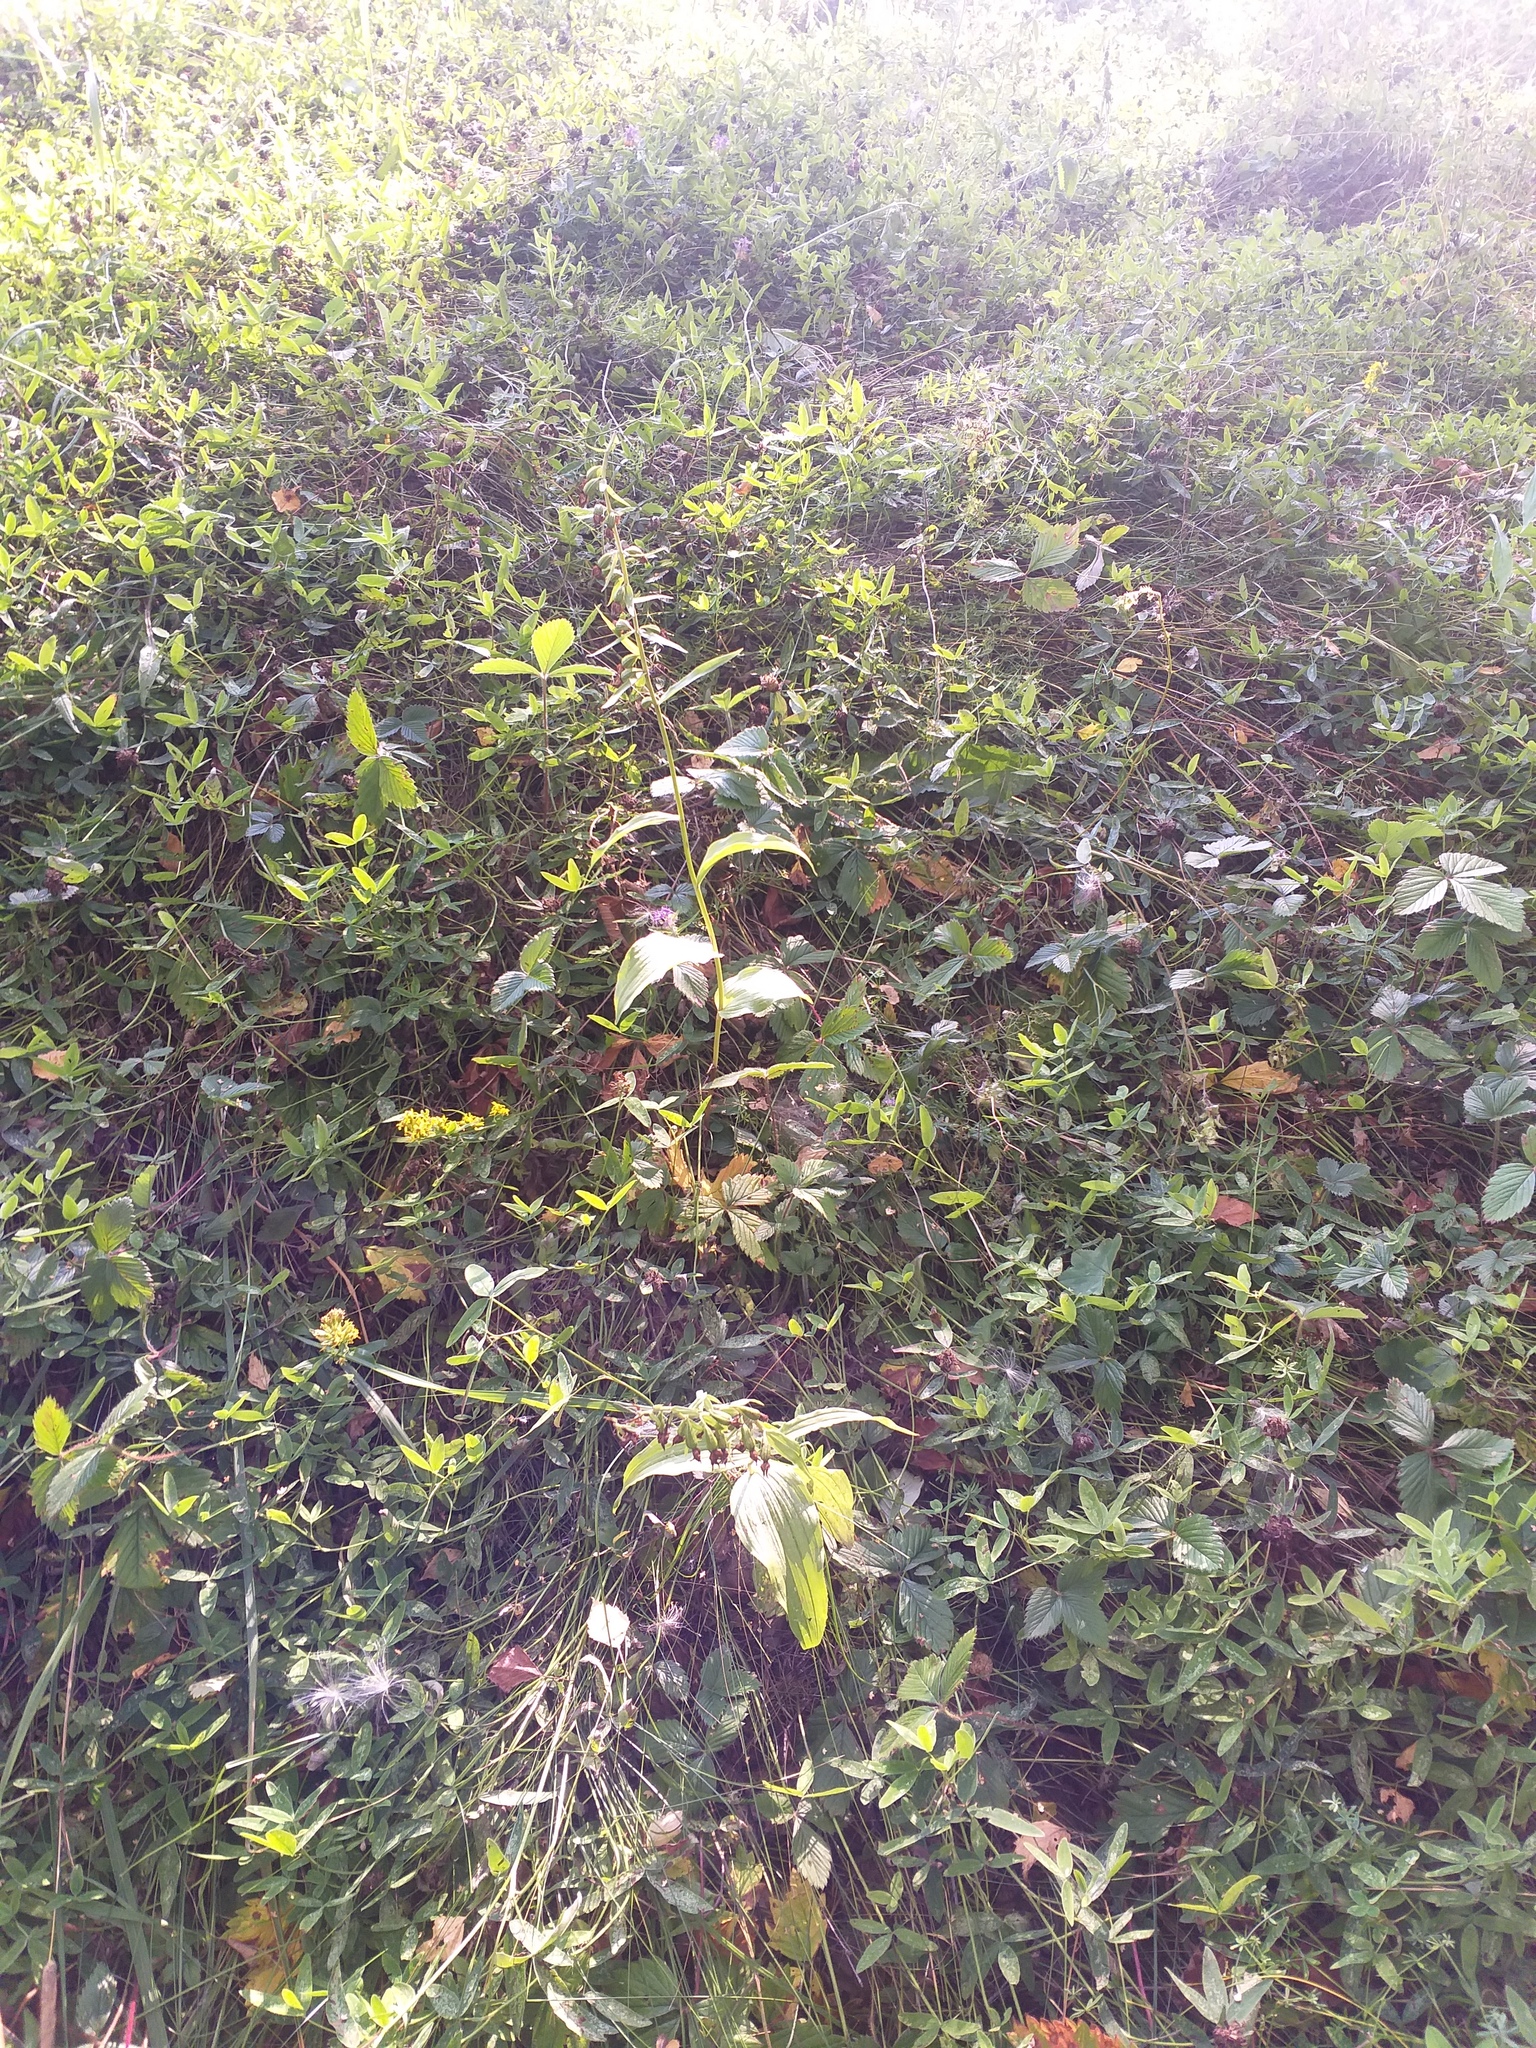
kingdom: Plantae
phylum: Tracheophyta
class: Liliopsida
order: Asparagales
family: Orchidaceae
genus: Epipactis
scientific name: Epipactis helleborine
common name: Broad-leaved helleborine
